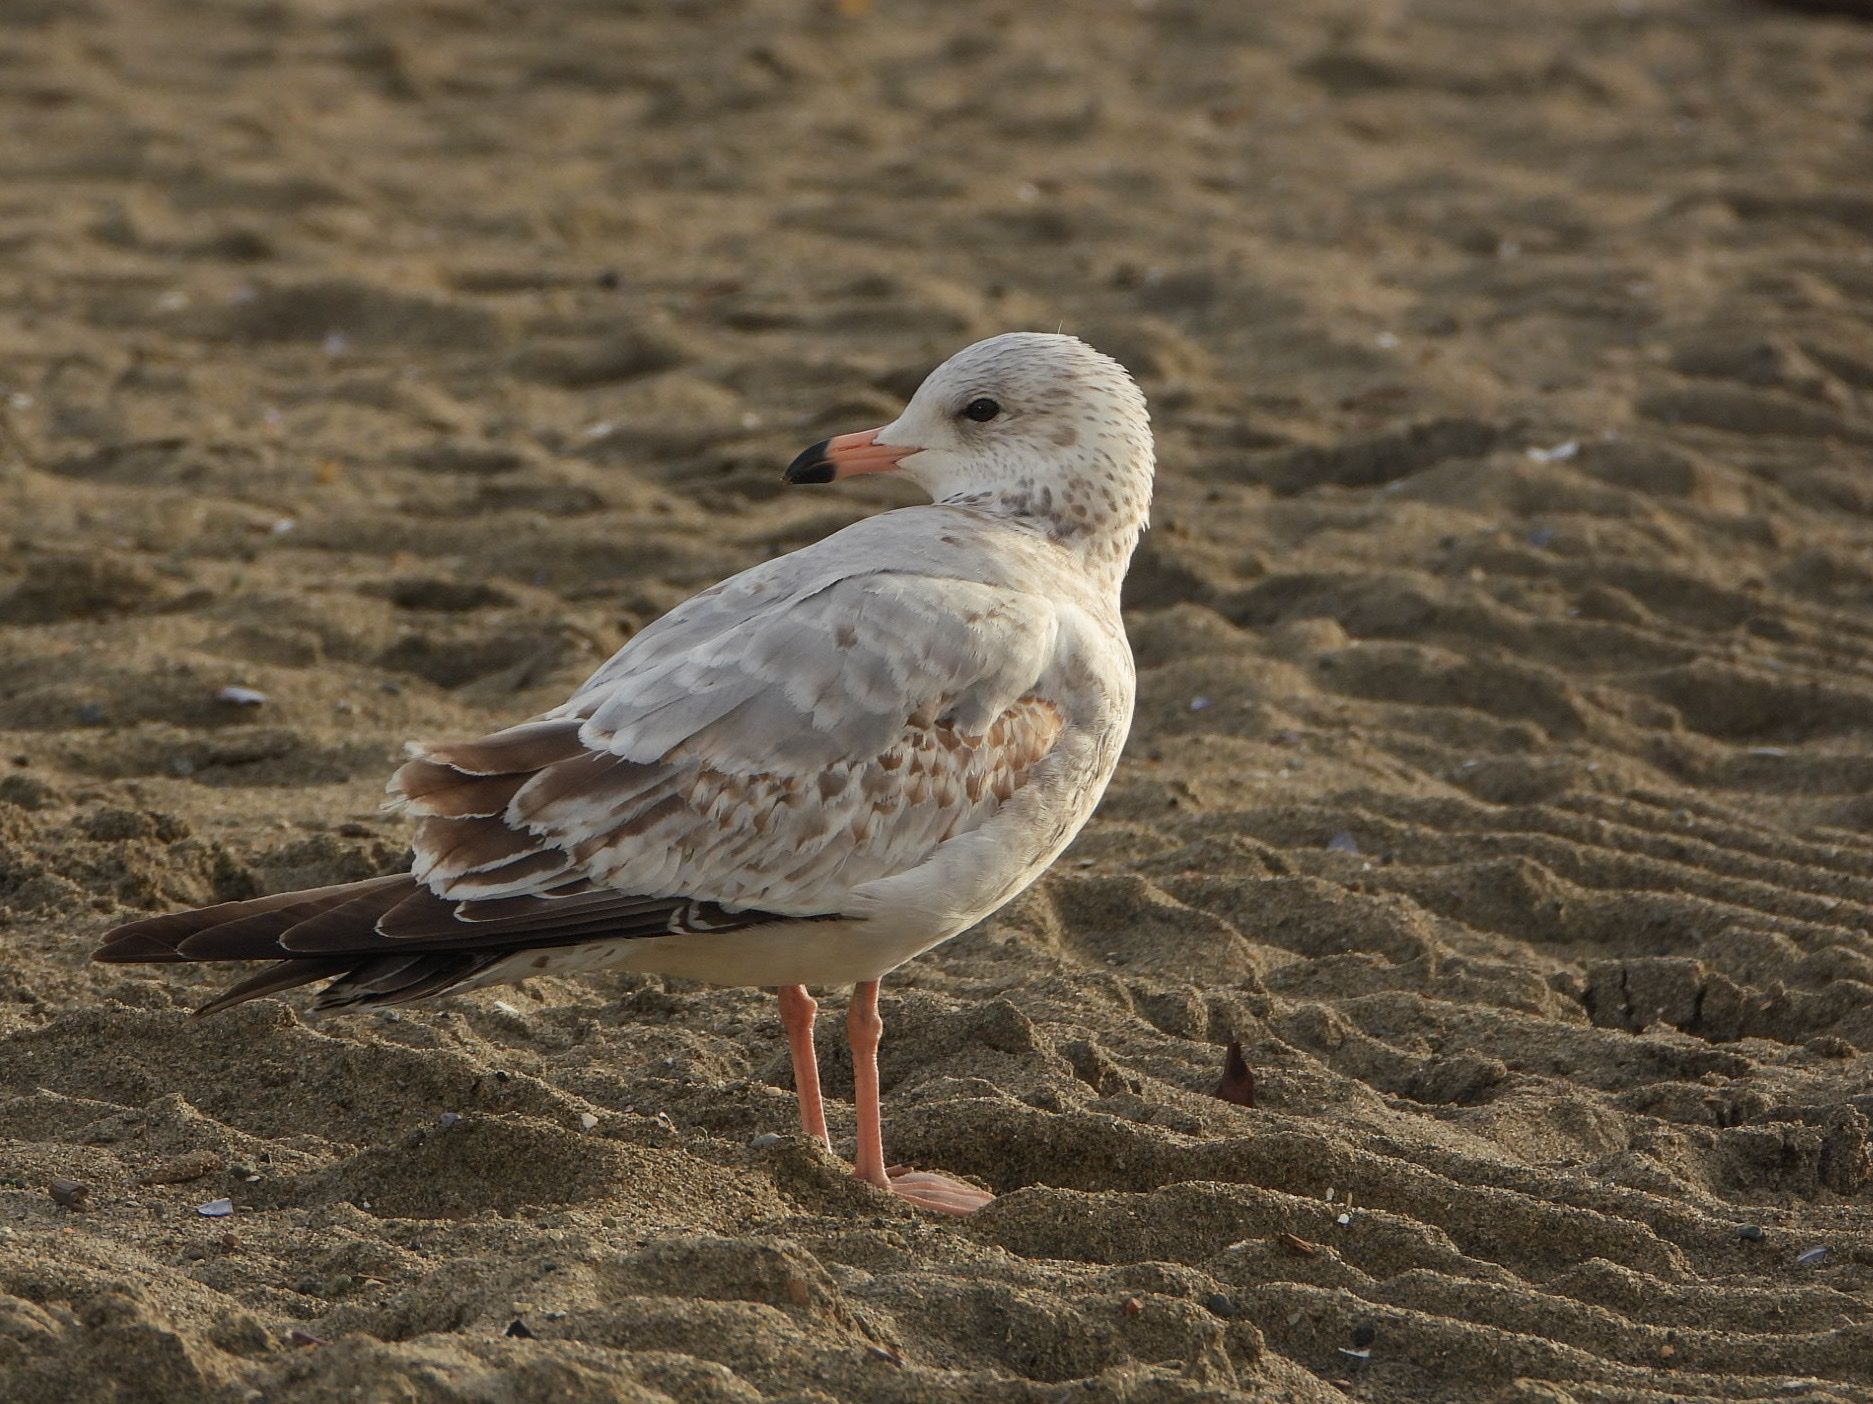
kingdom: Animalia
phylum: Chordata
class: Aves
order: Charadriiformes
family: Laridae
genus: Larus
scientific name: Larus delawarensis
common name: Ring-billed gull
